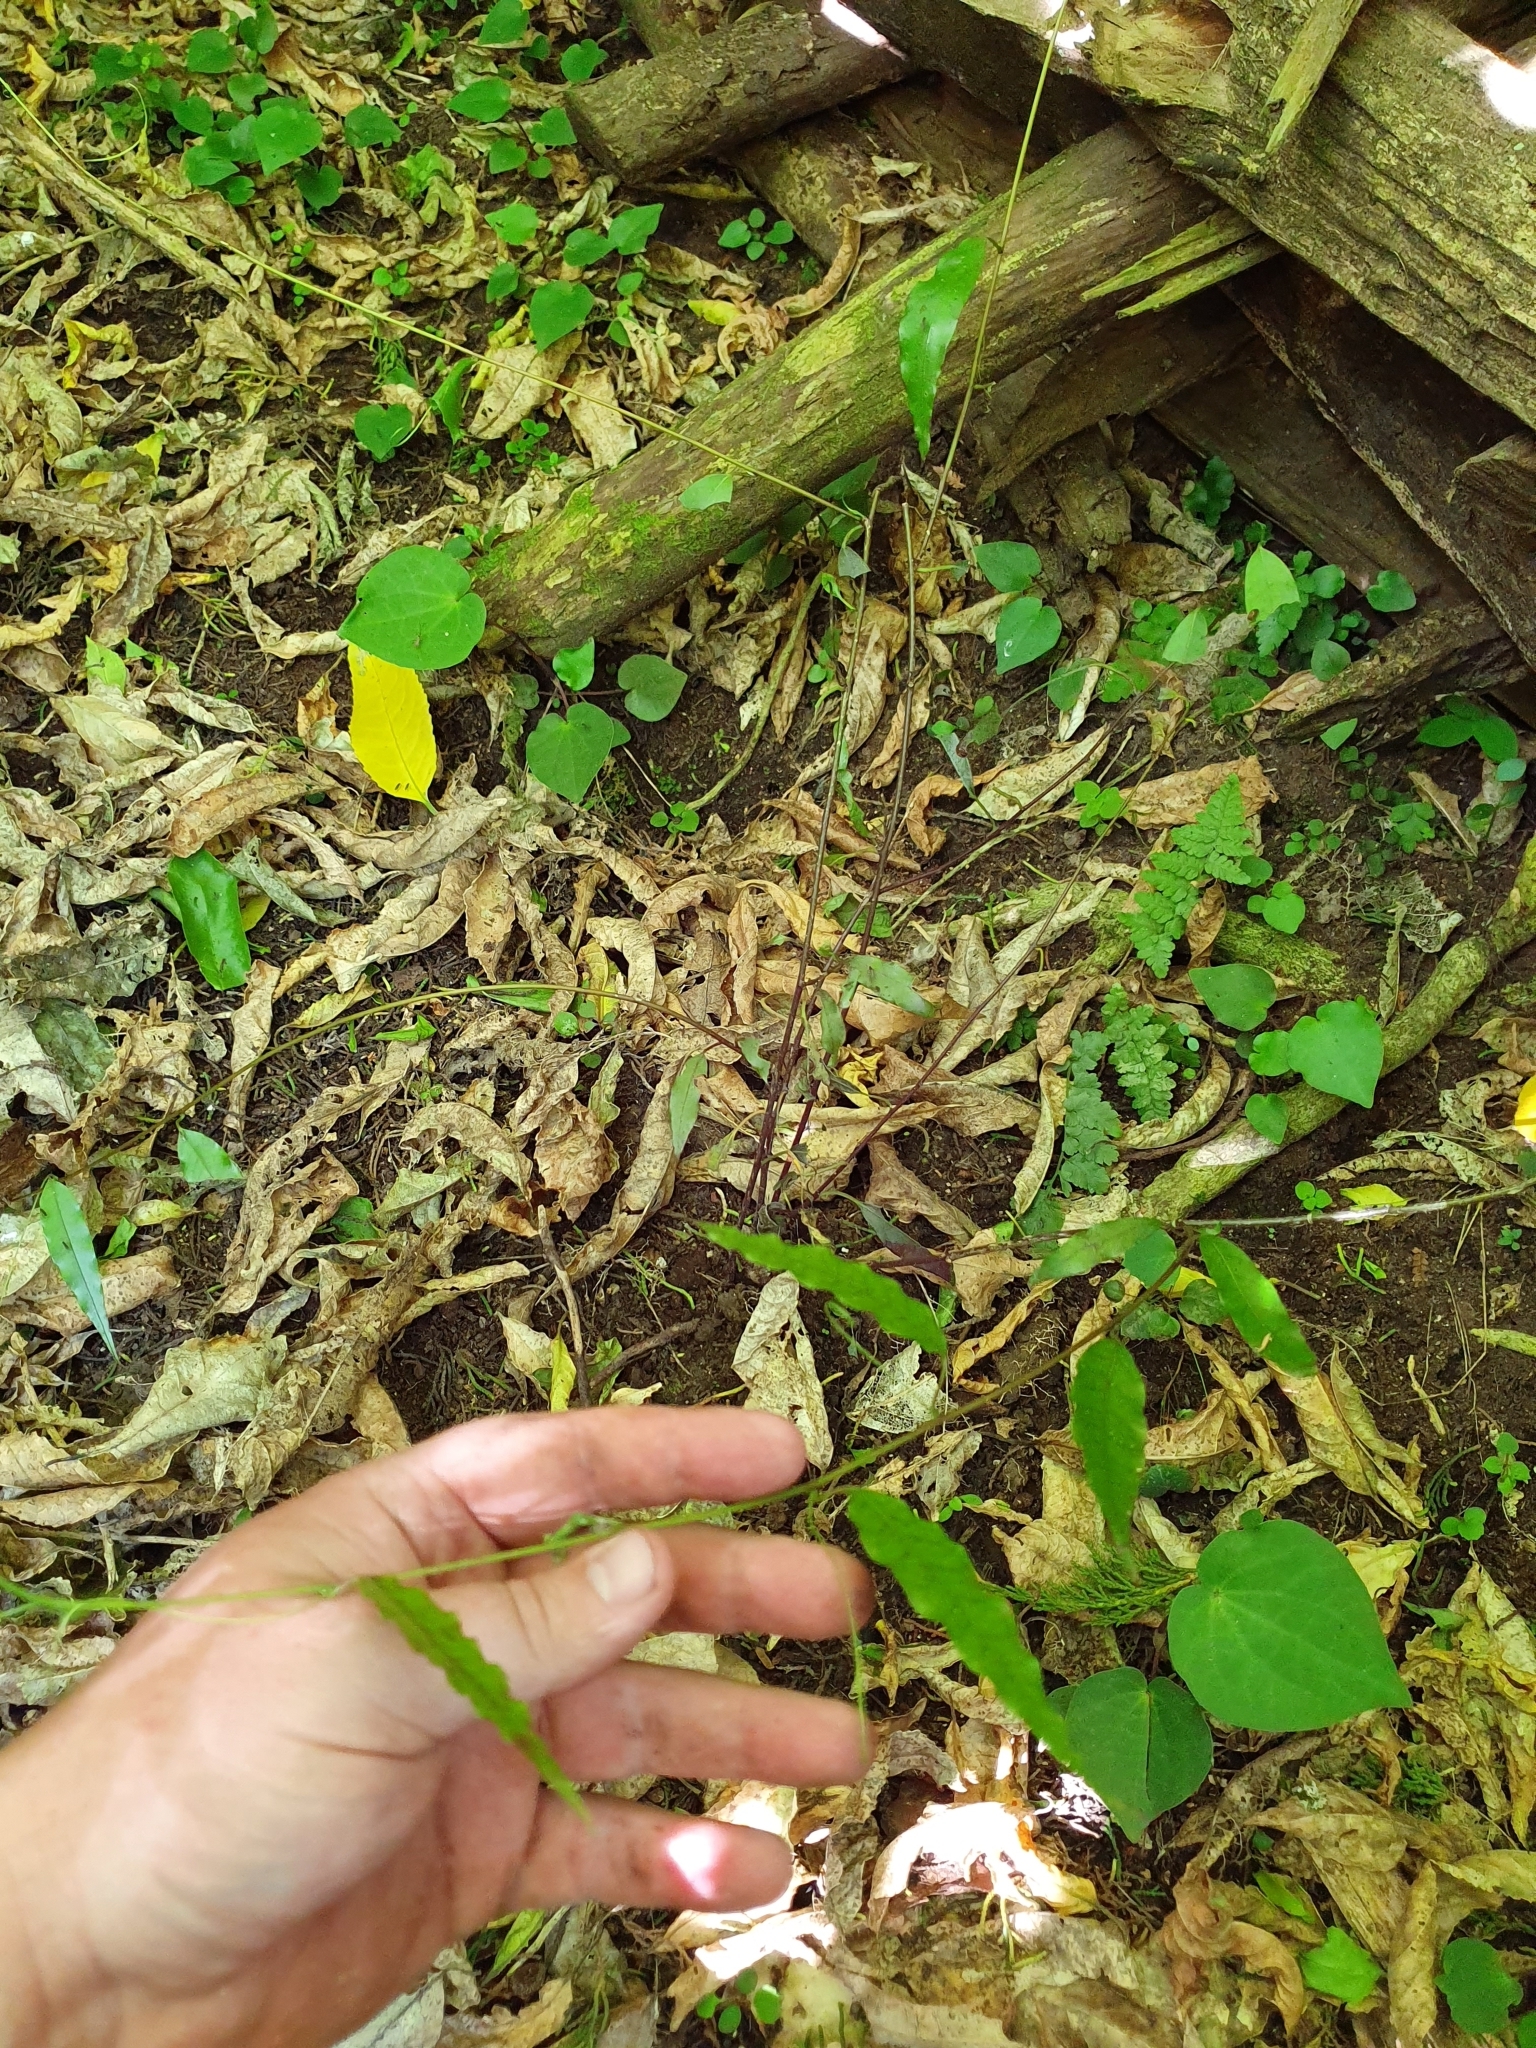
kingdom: Plantae
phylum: Tracheophyta
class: Magnoliopsida
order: Malpighiales
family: Passifloraceae
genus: Passiflora
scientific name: Passiflora tetrandra
